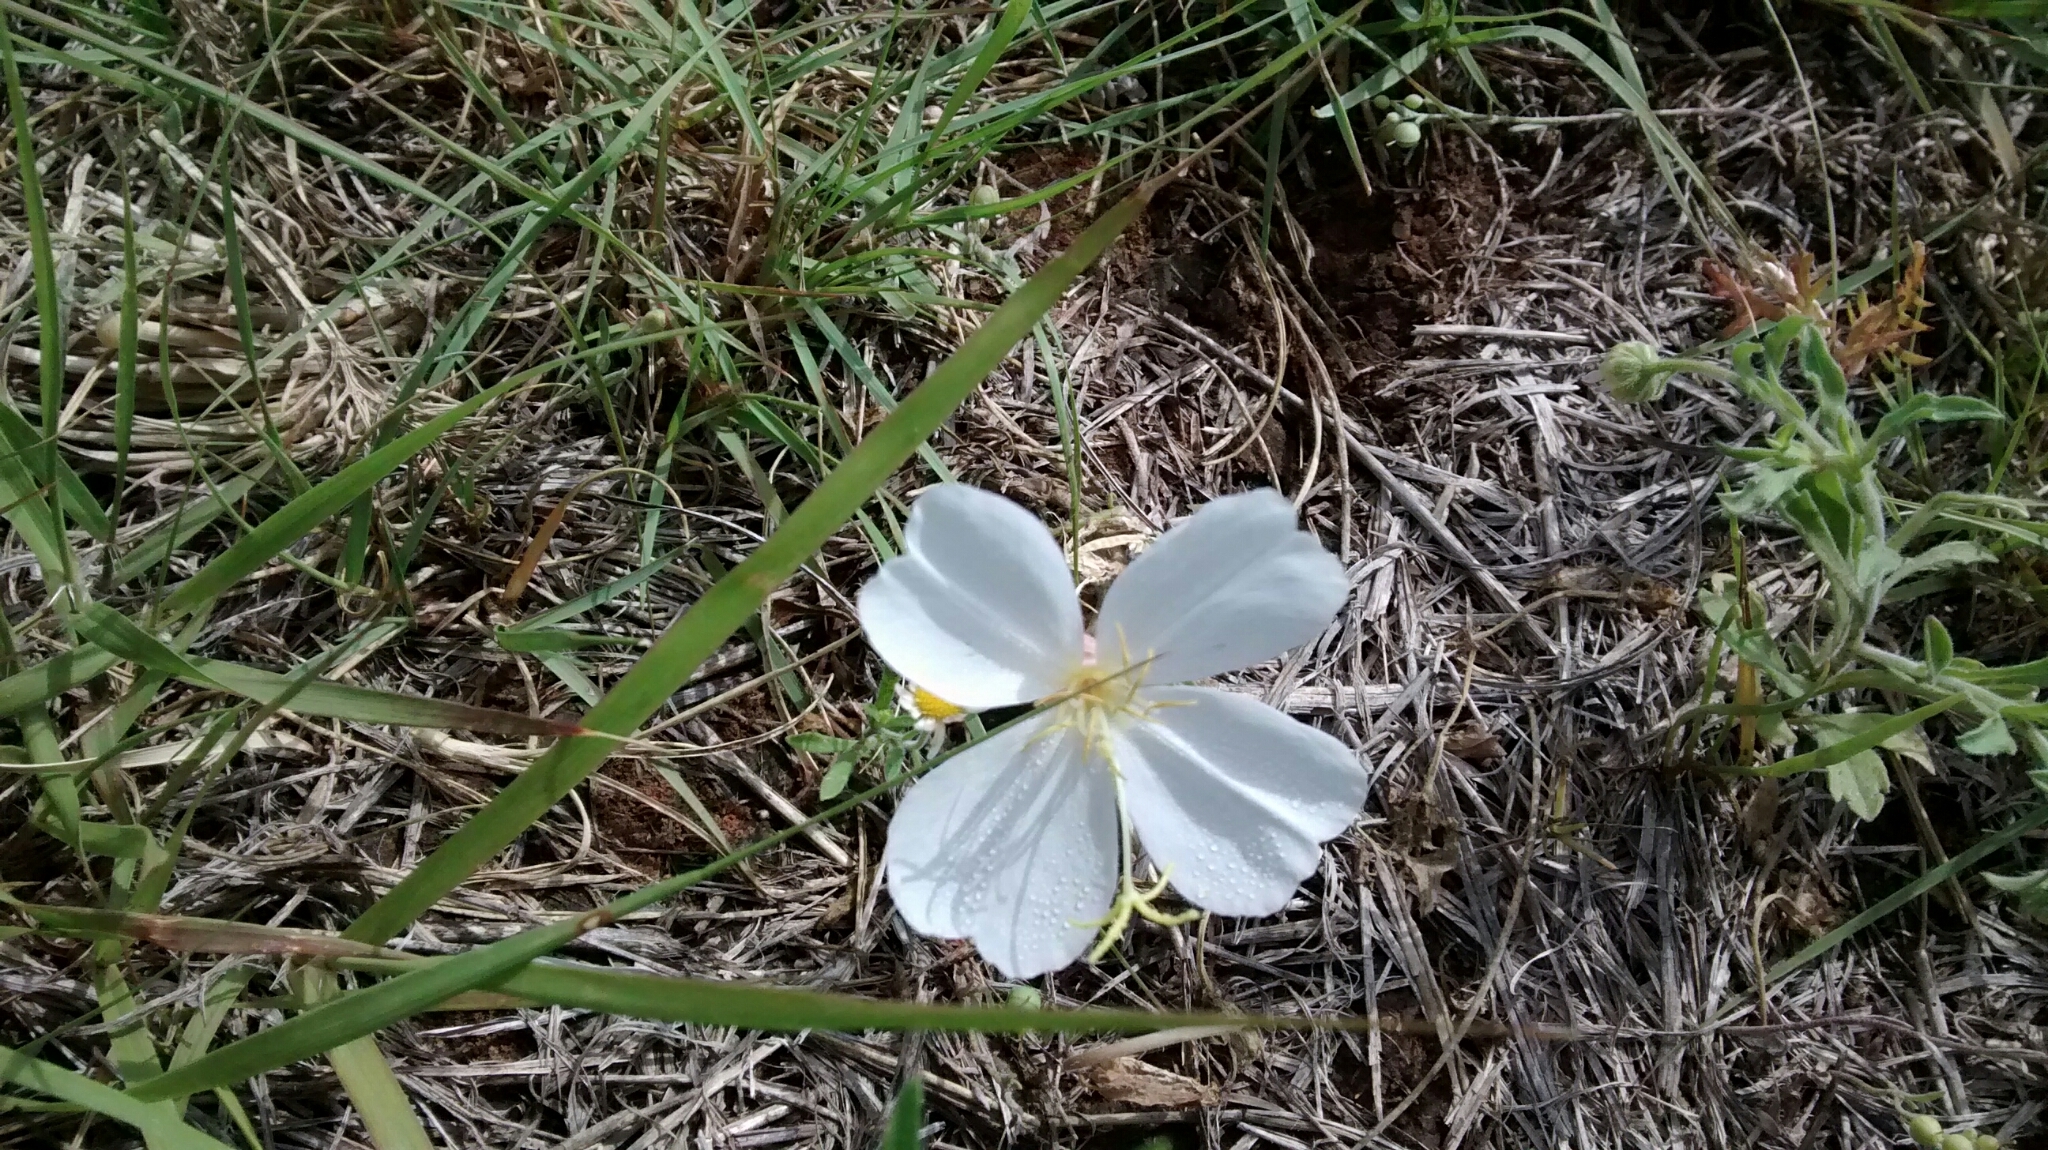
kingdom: Plantae
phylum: Tracheophyta
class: Magnoliopsida
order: Myrtales
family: Onagraceae
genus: Oenothera
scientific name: Oenothera
